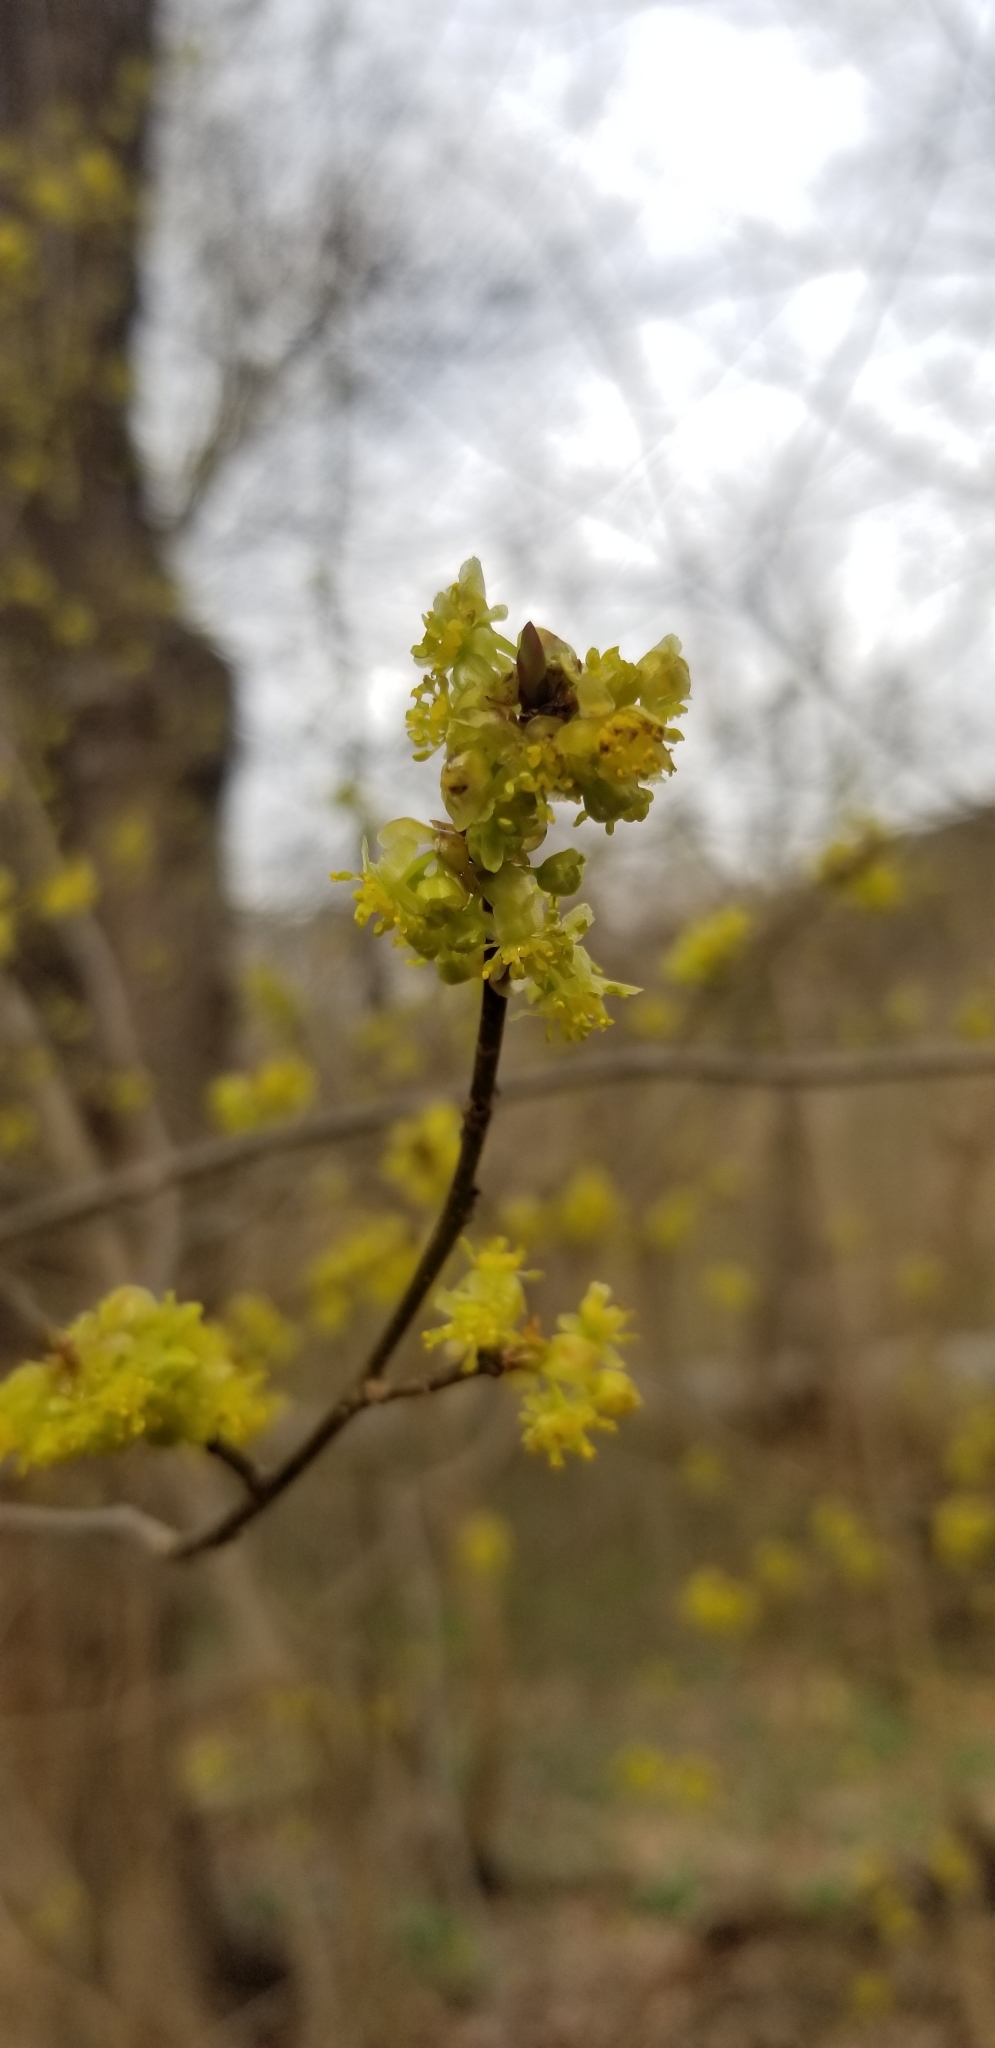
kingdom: Plantae
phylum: Tracheophyta
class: Magnoliopsida
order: Laurales
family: Lauraceae
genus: Lindera
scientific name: Lindera benzoin
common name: Spicebush
